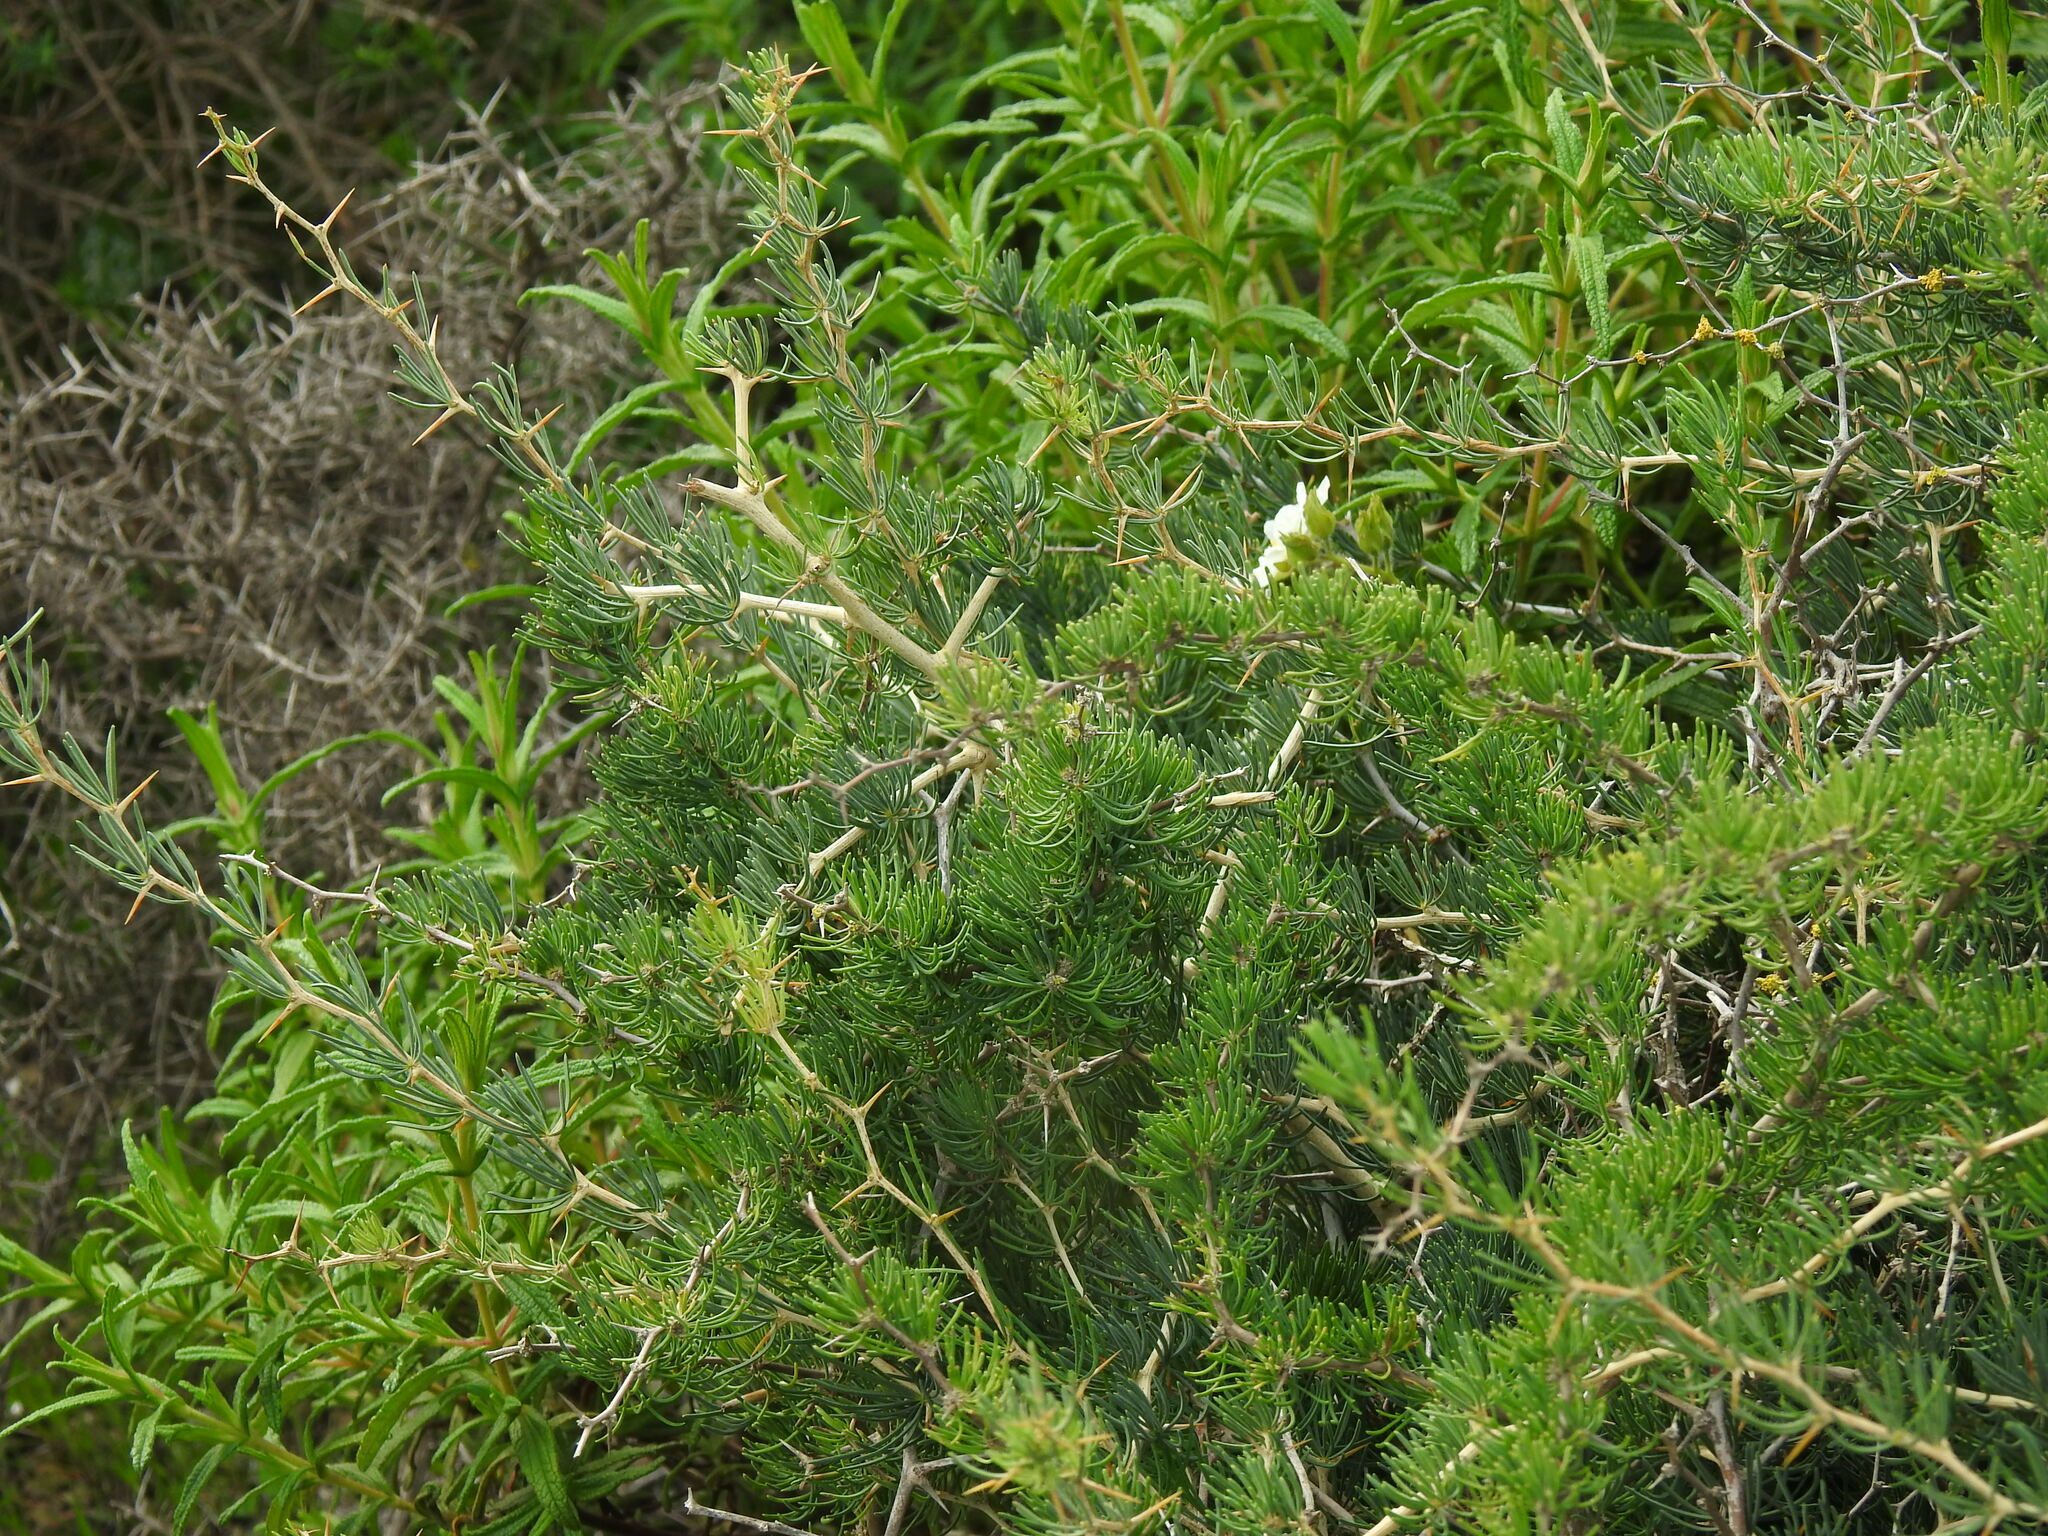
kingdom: Plantae
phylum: Tracheophyta
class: Liliopsida
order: Asparagales
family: Asparagaceae
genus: Asparagus
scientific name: Asparagus albus
